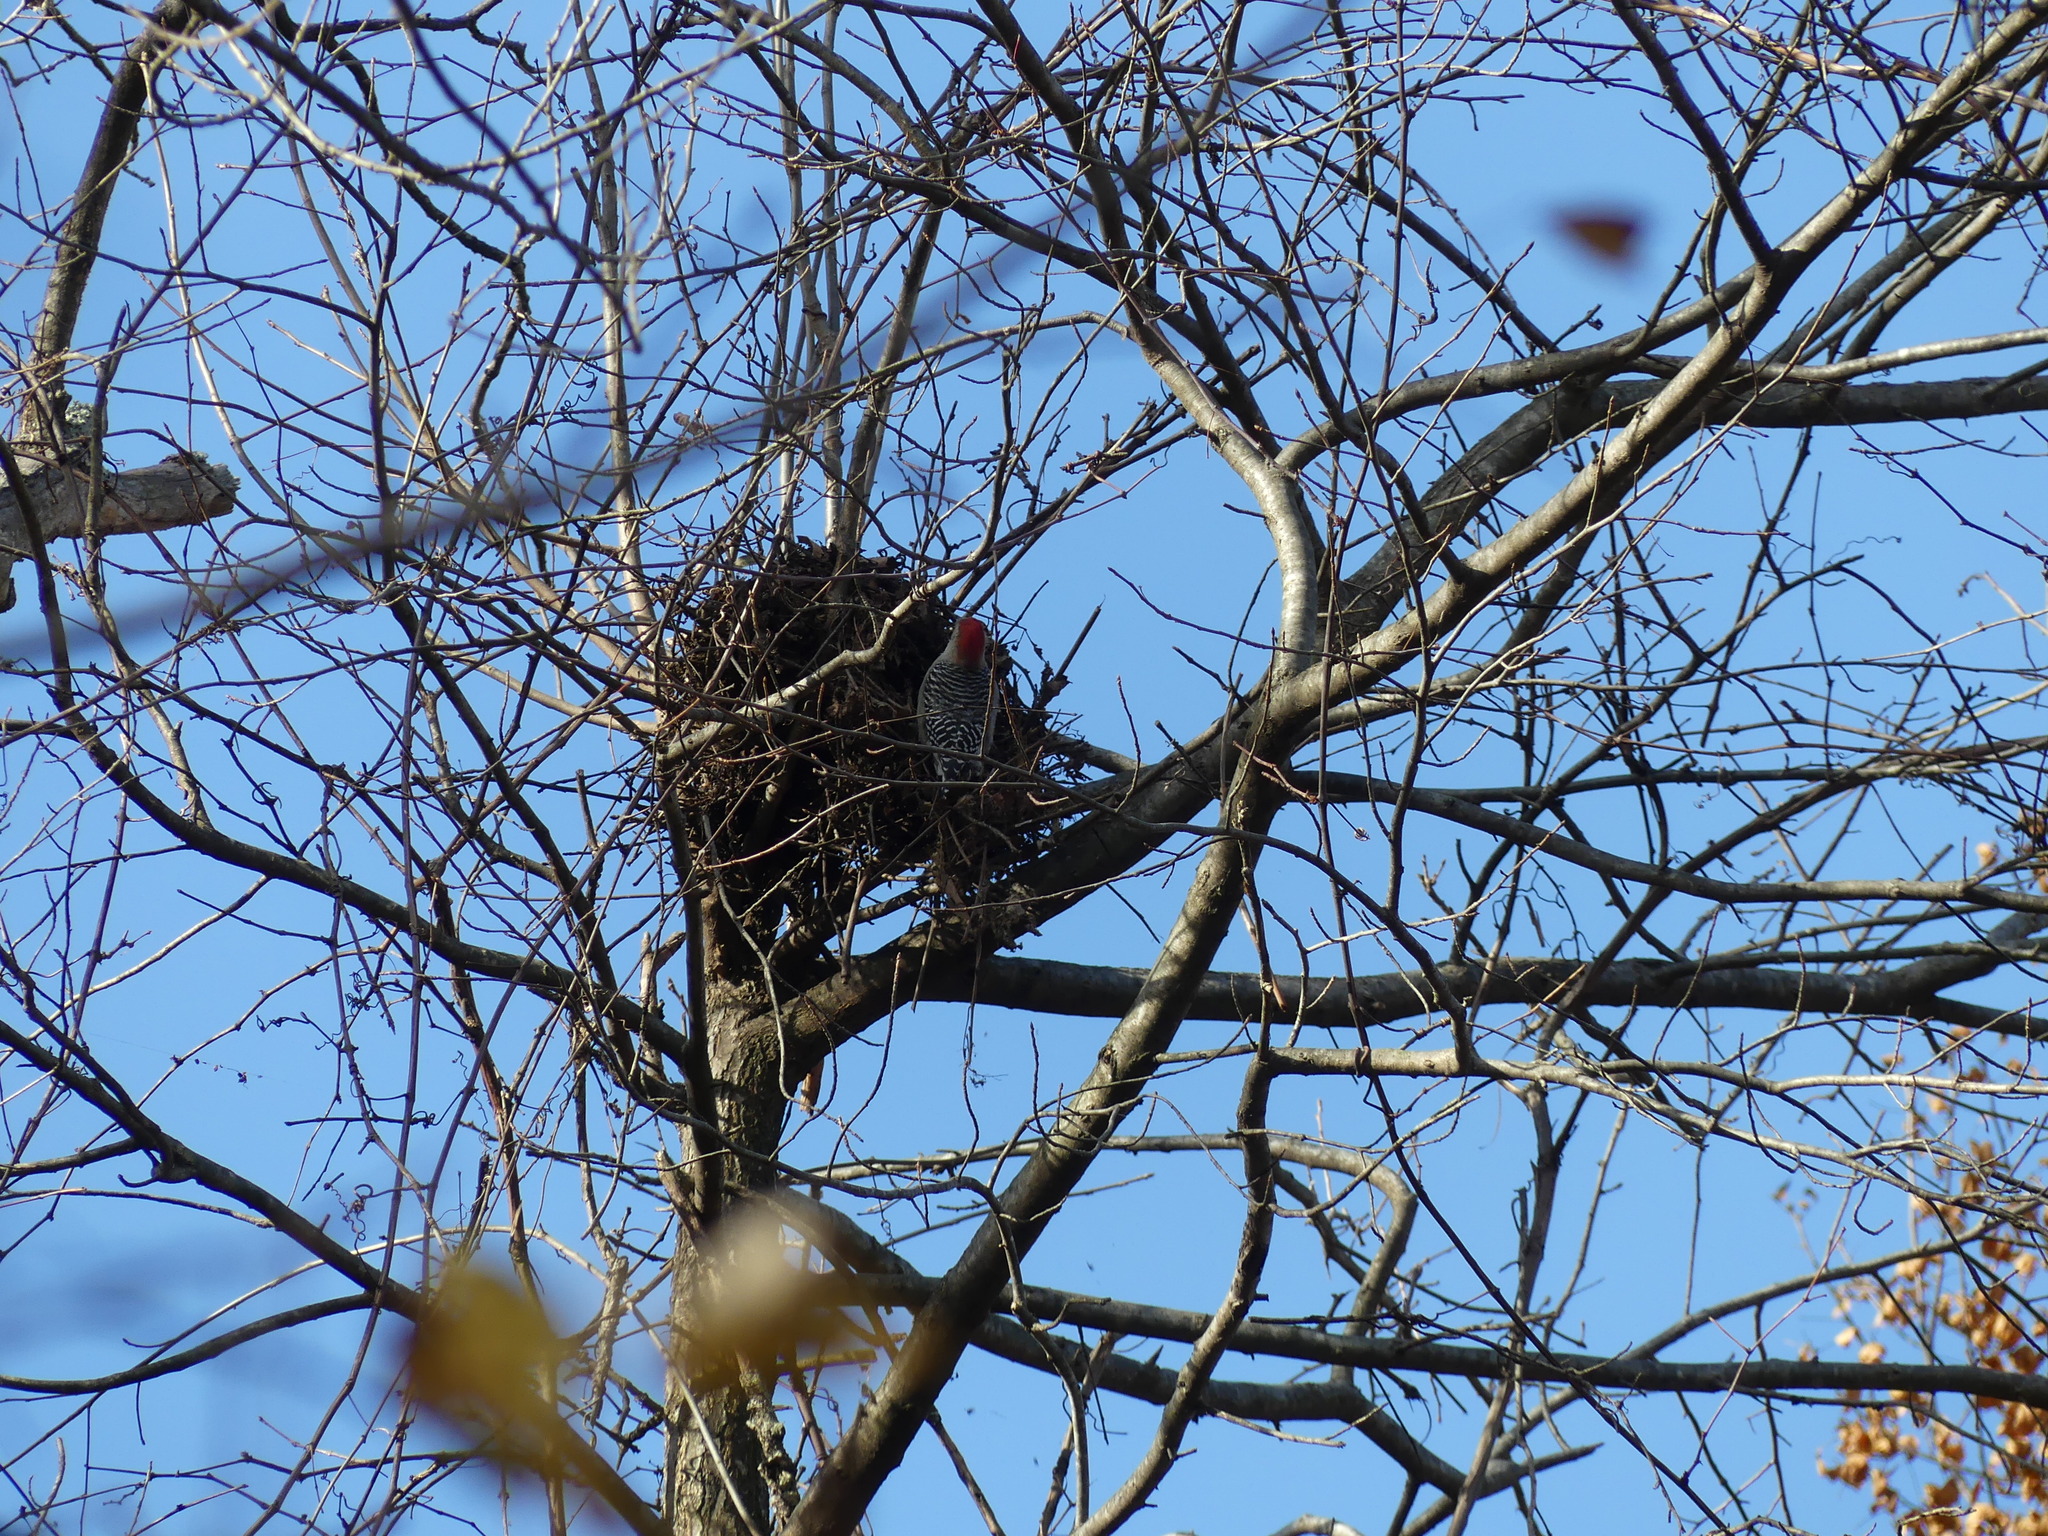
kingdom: Animalia
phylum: Chordata
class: Aves
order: Piciformes
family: Picidae
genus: Melanerpes
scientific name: Melanerpes carolinus
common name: Red-bellied woodpecker
